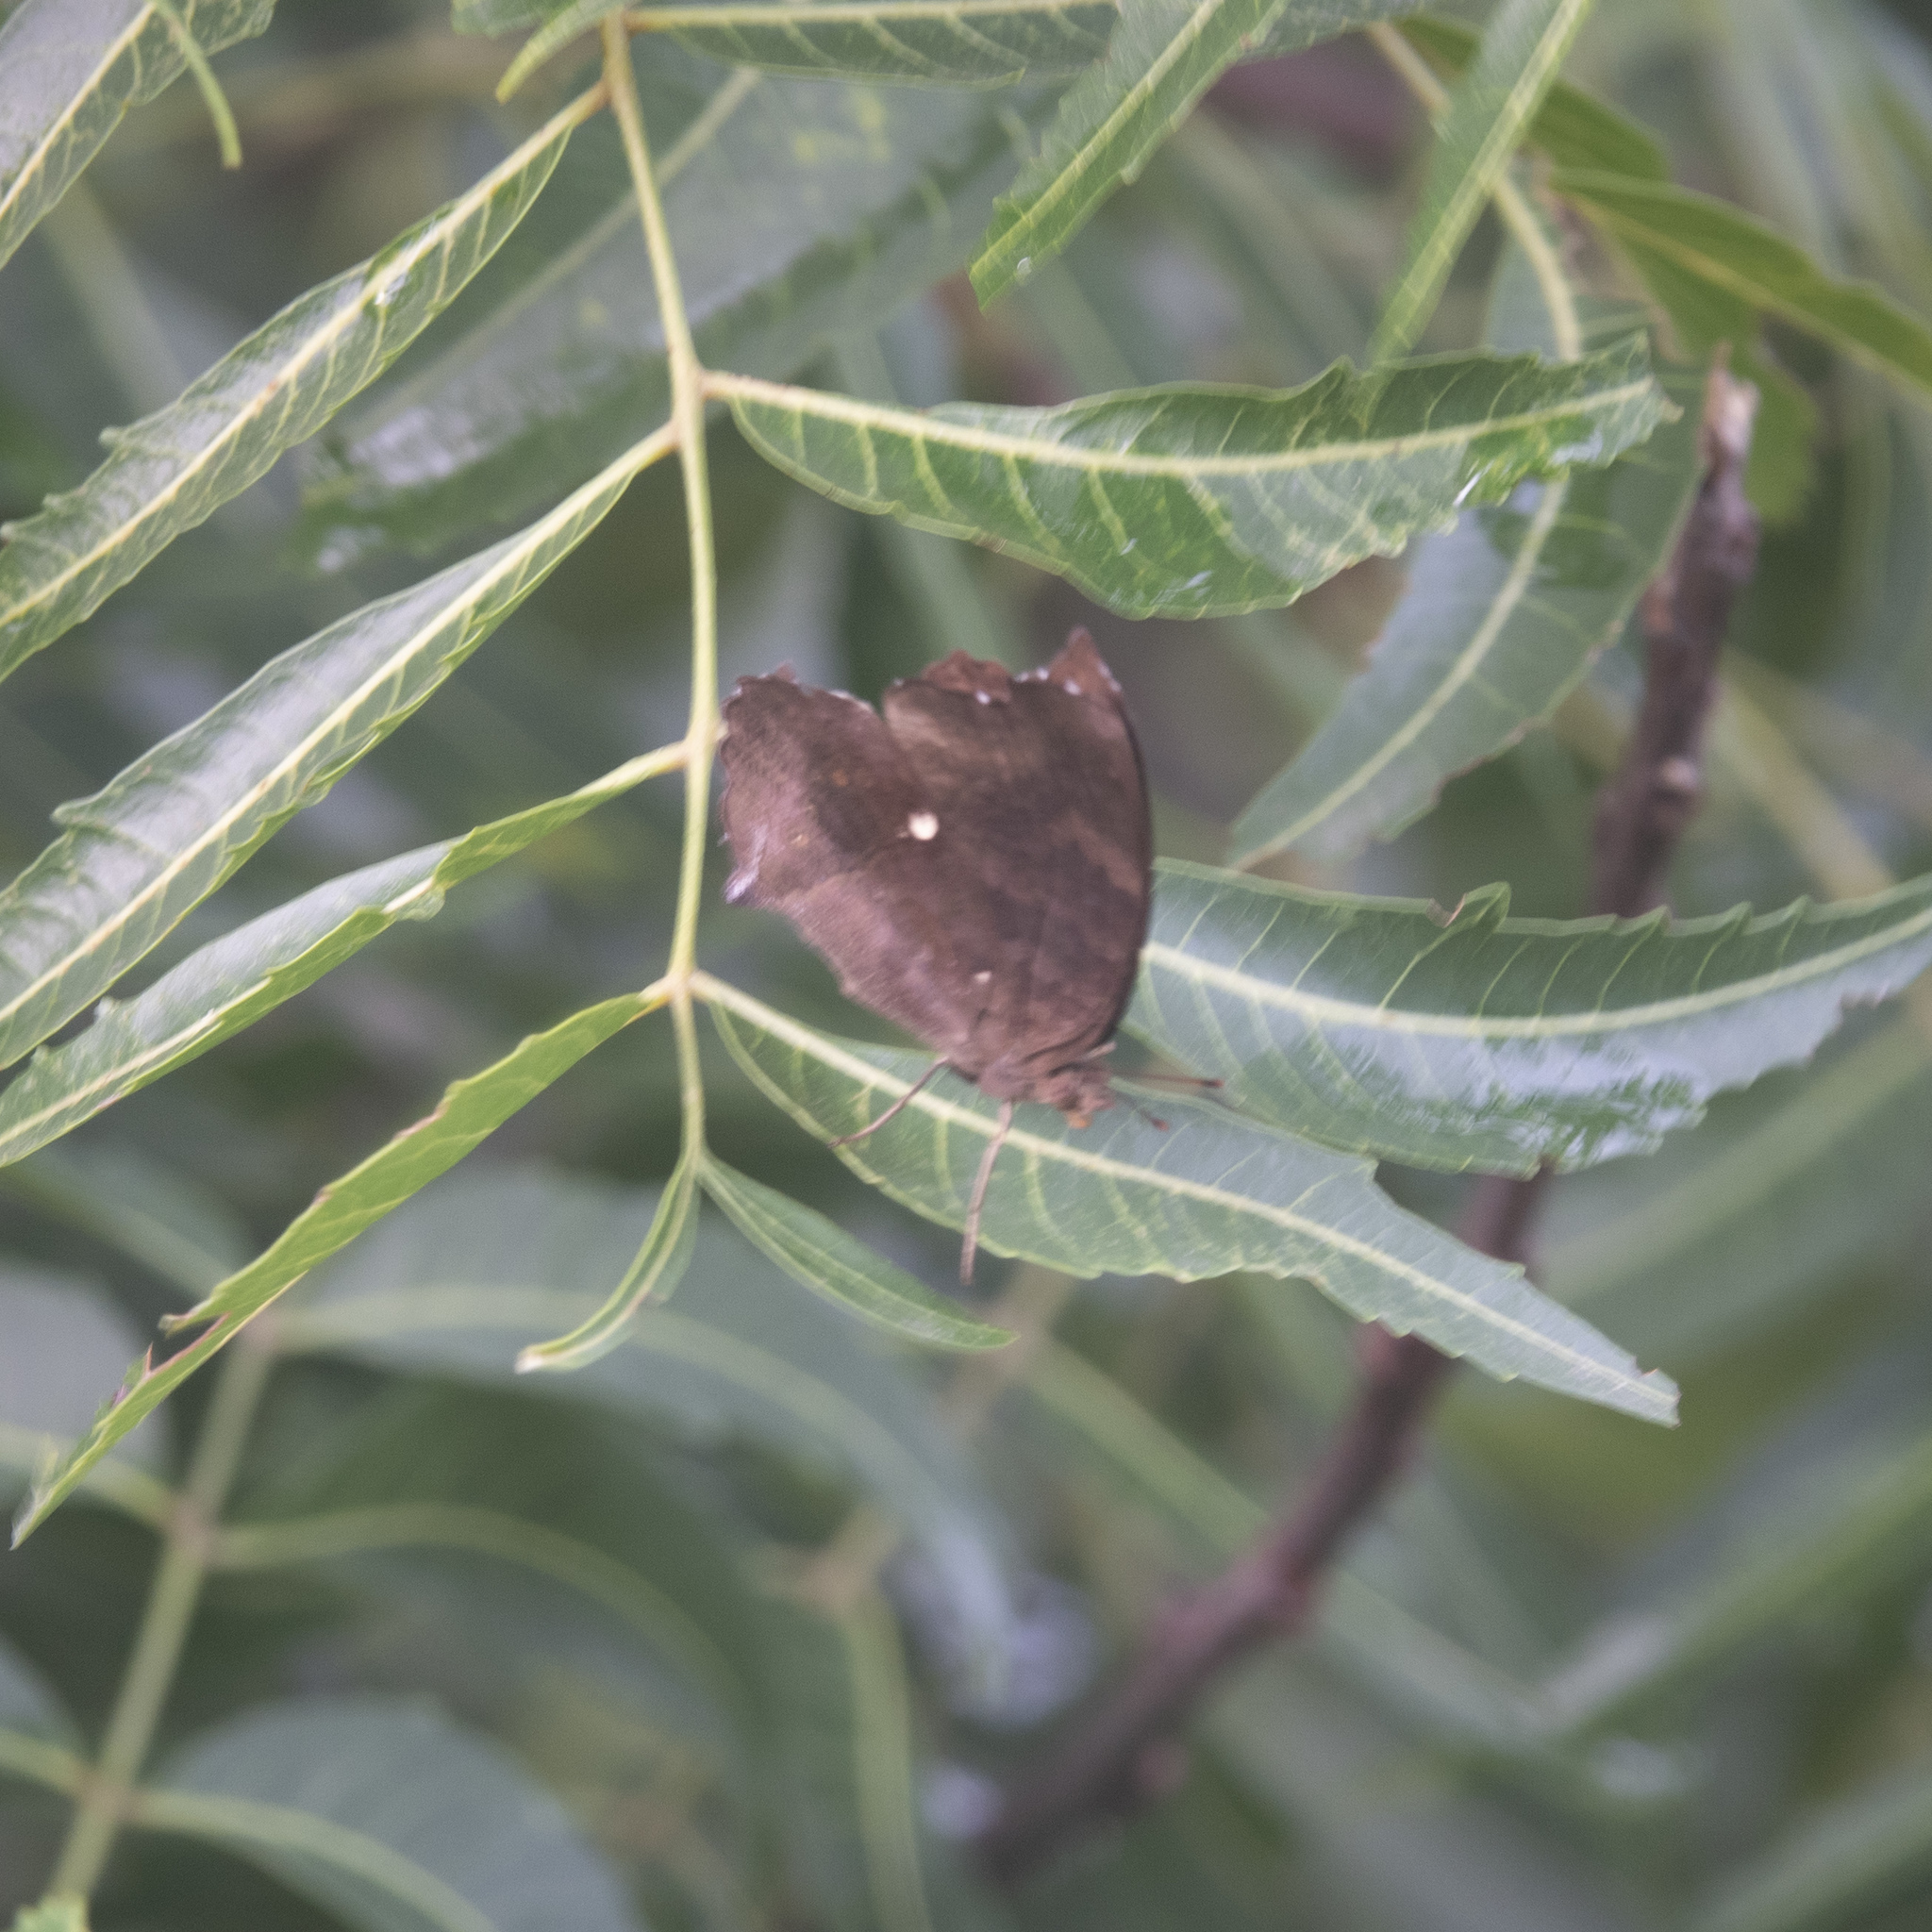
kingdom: Animalia
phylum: Arthropoda
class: Insecta
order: Lepidoptera
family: Nymphalidae
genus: Junonia
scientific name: Junonia iphita
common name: Chocolate pansy
